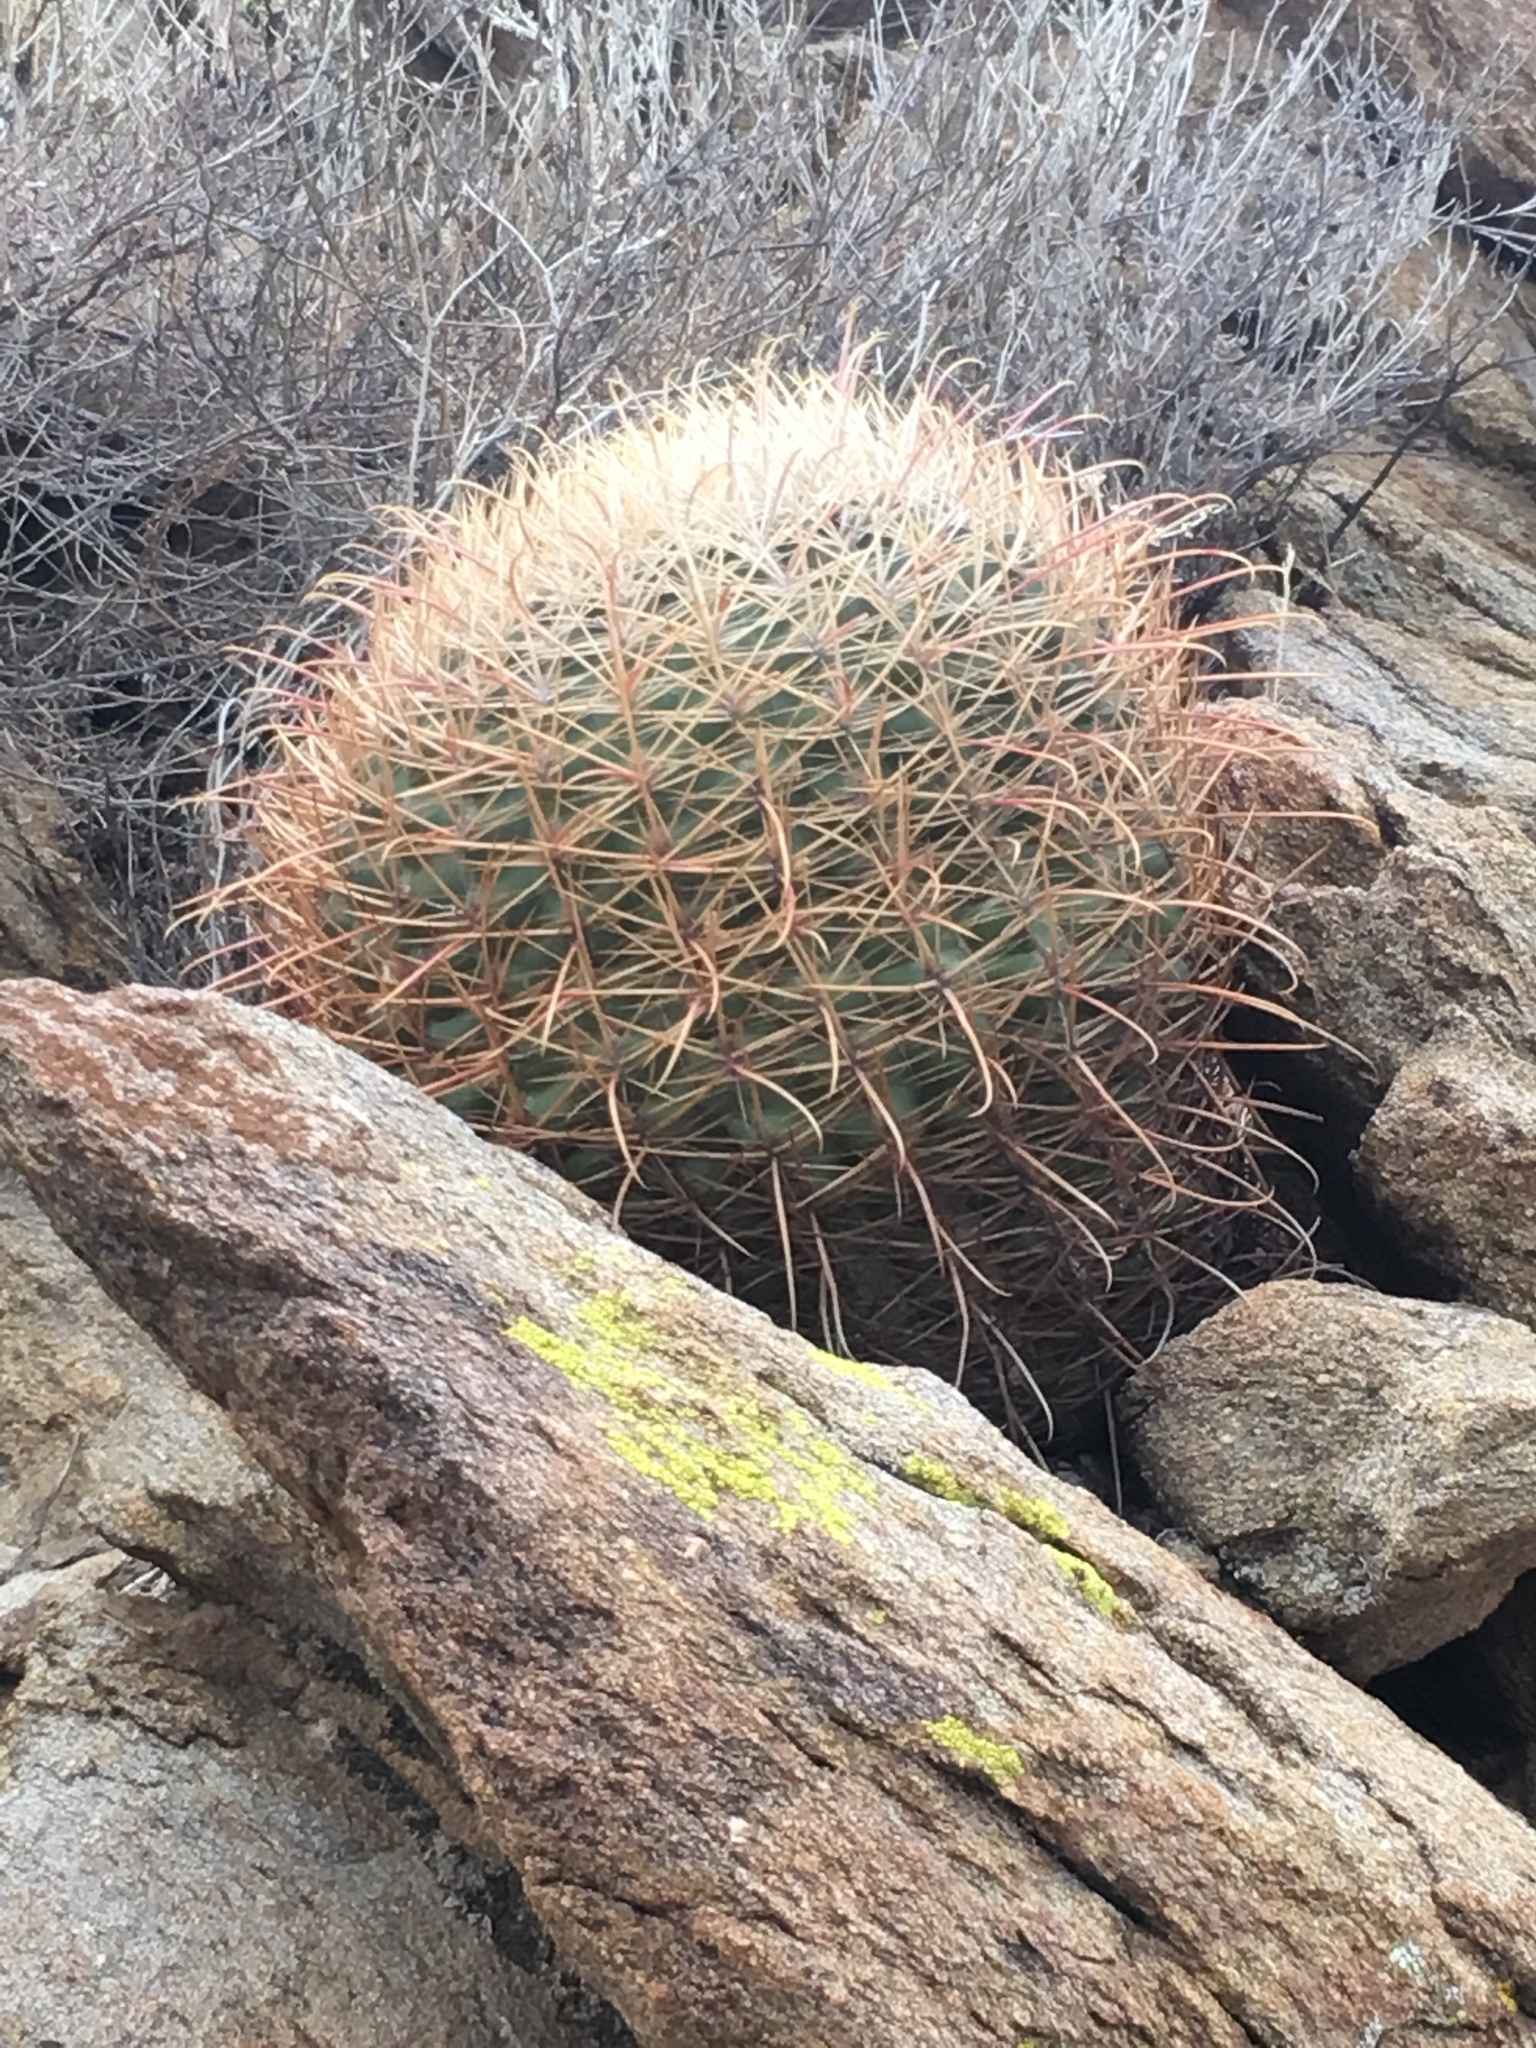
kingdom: Plantae
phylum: Tracheophyta
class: Magnoliopsida
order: Caryophyllales
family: Cactaceae
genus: Ferocactus
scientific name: Ferocactus cylindraceus
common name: California barrel cactus
